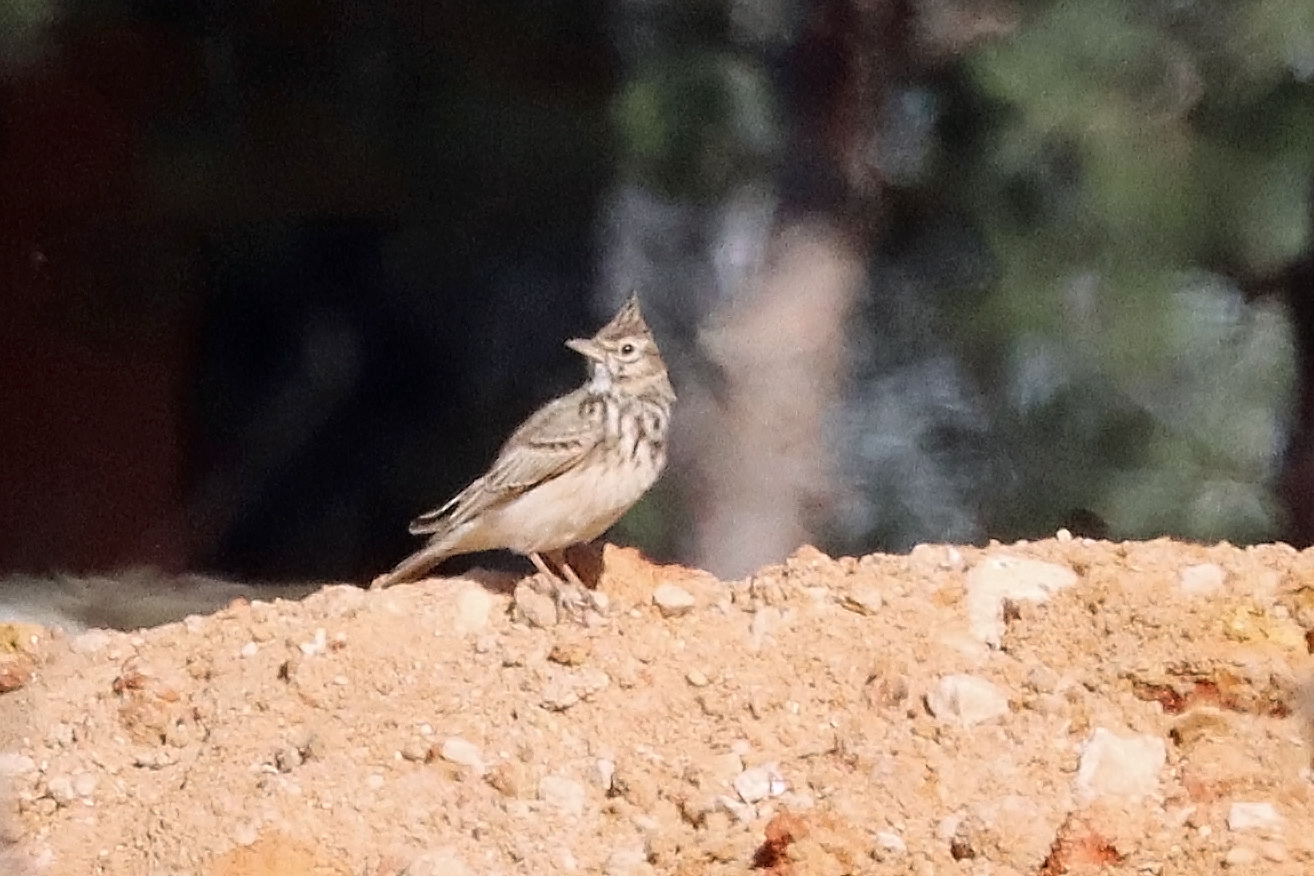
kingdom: Animalia
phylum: Chordata
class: Aves
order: Passeriformes
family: Alaudidae
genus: Galerida
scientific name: Galerida cristata
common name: Crested lark
